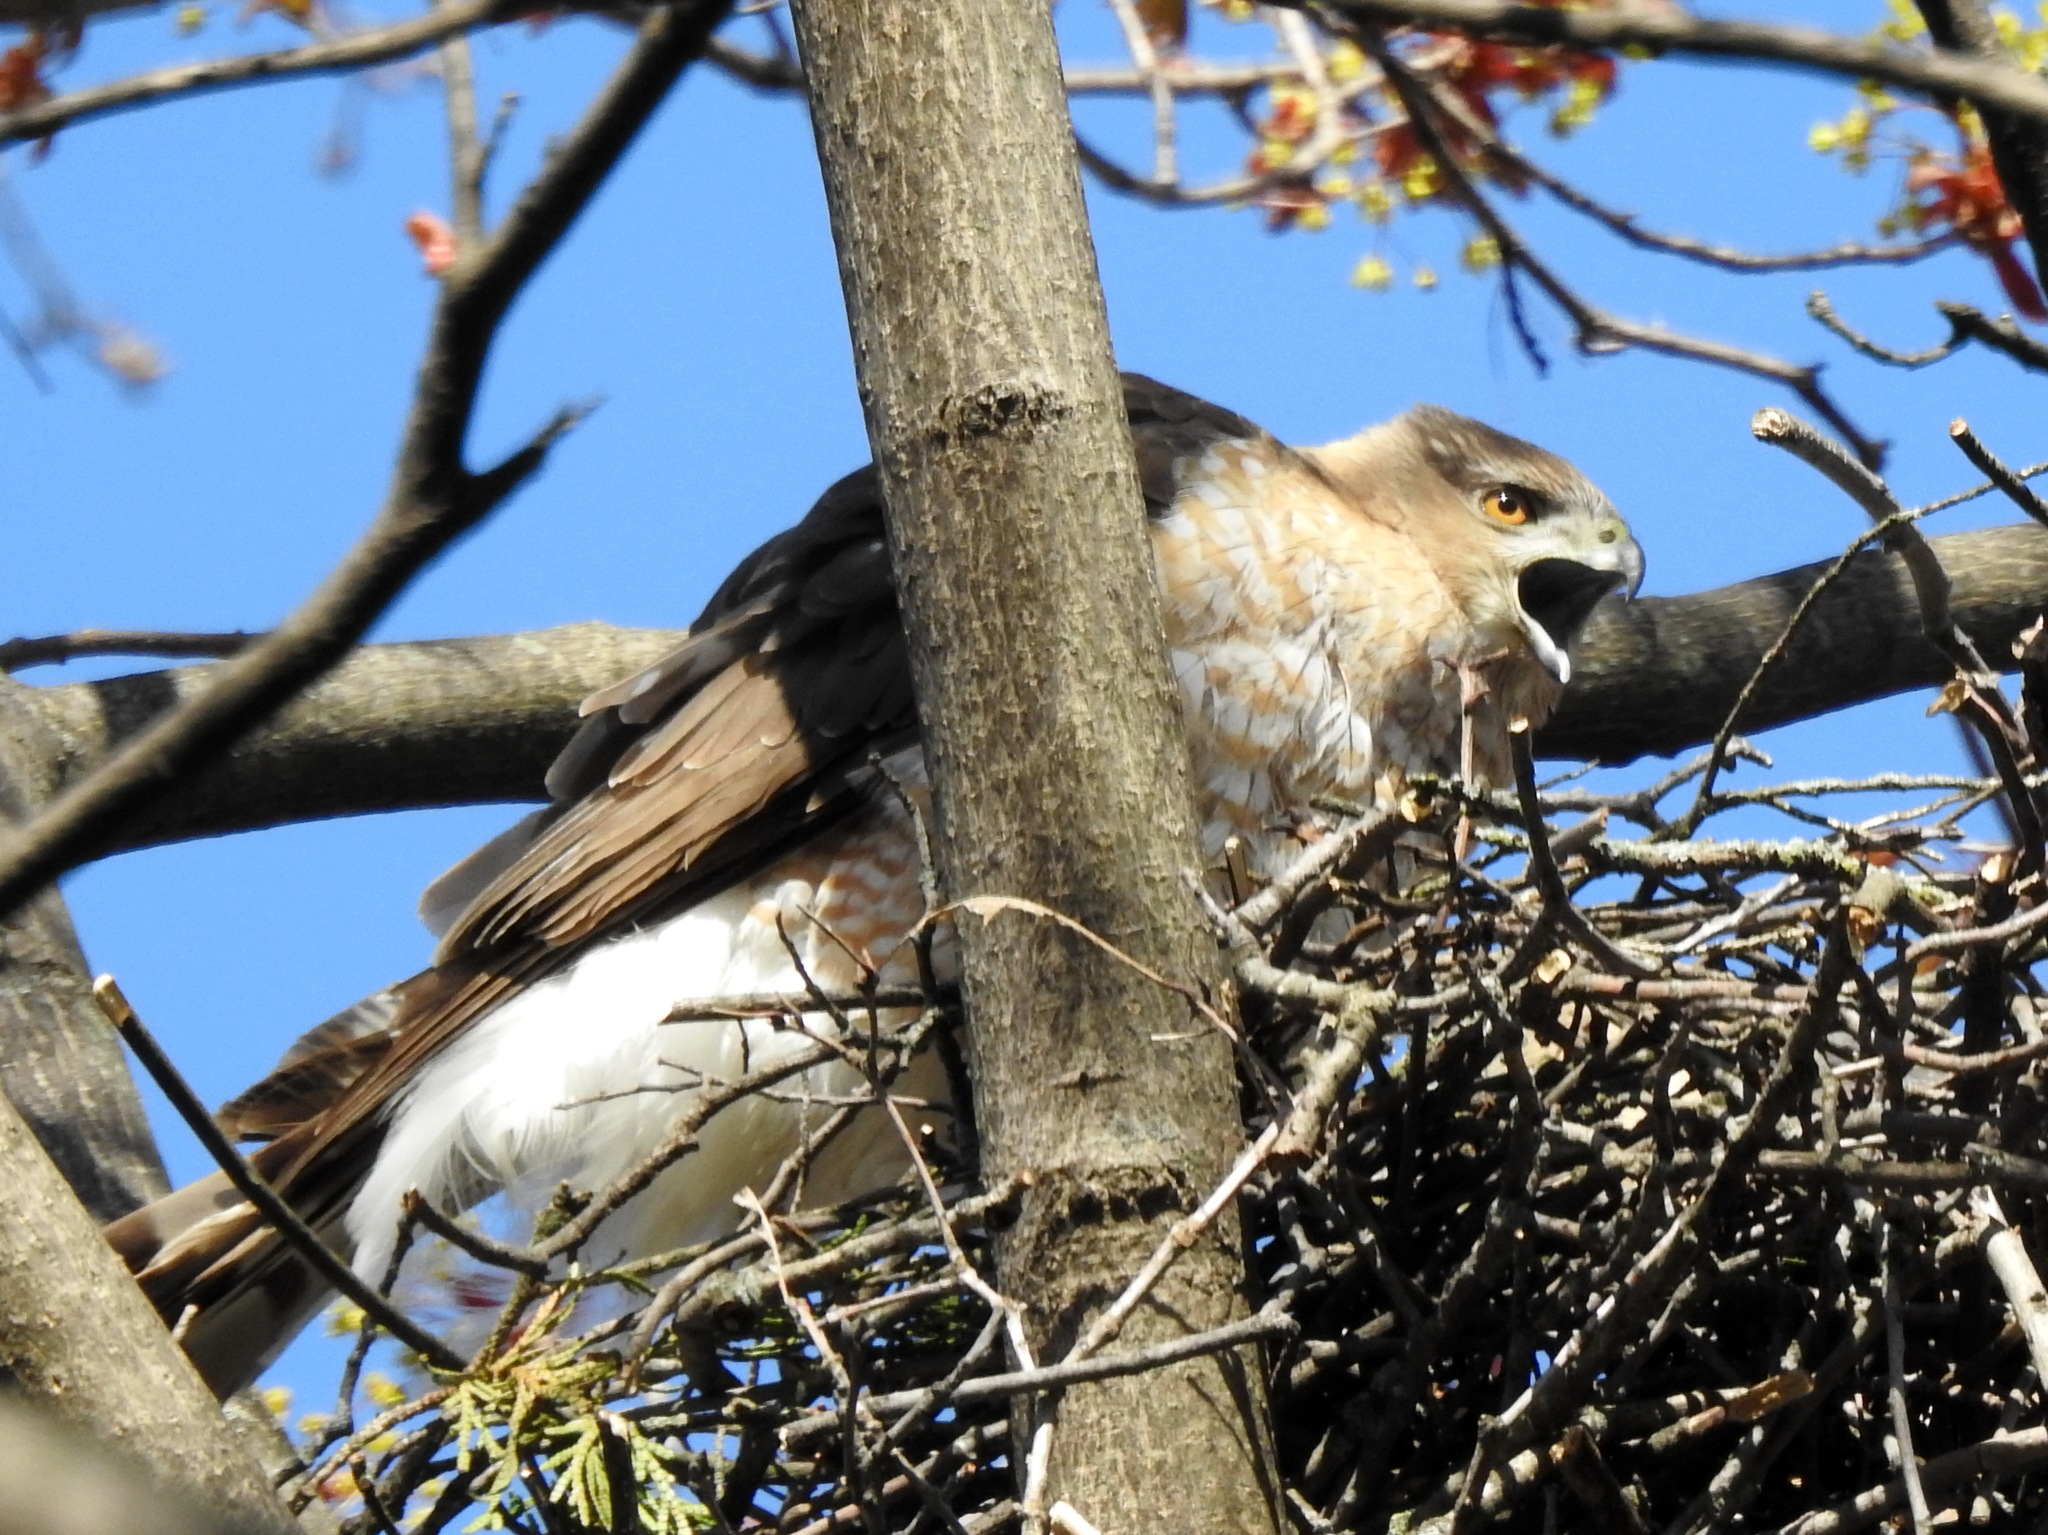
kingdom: Animalia
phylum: Chordata
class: Aves
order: Accipitriformes
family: Accipitridae
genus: Accipiter
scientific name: Accipiter cooperii
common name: Cooper's hawk
